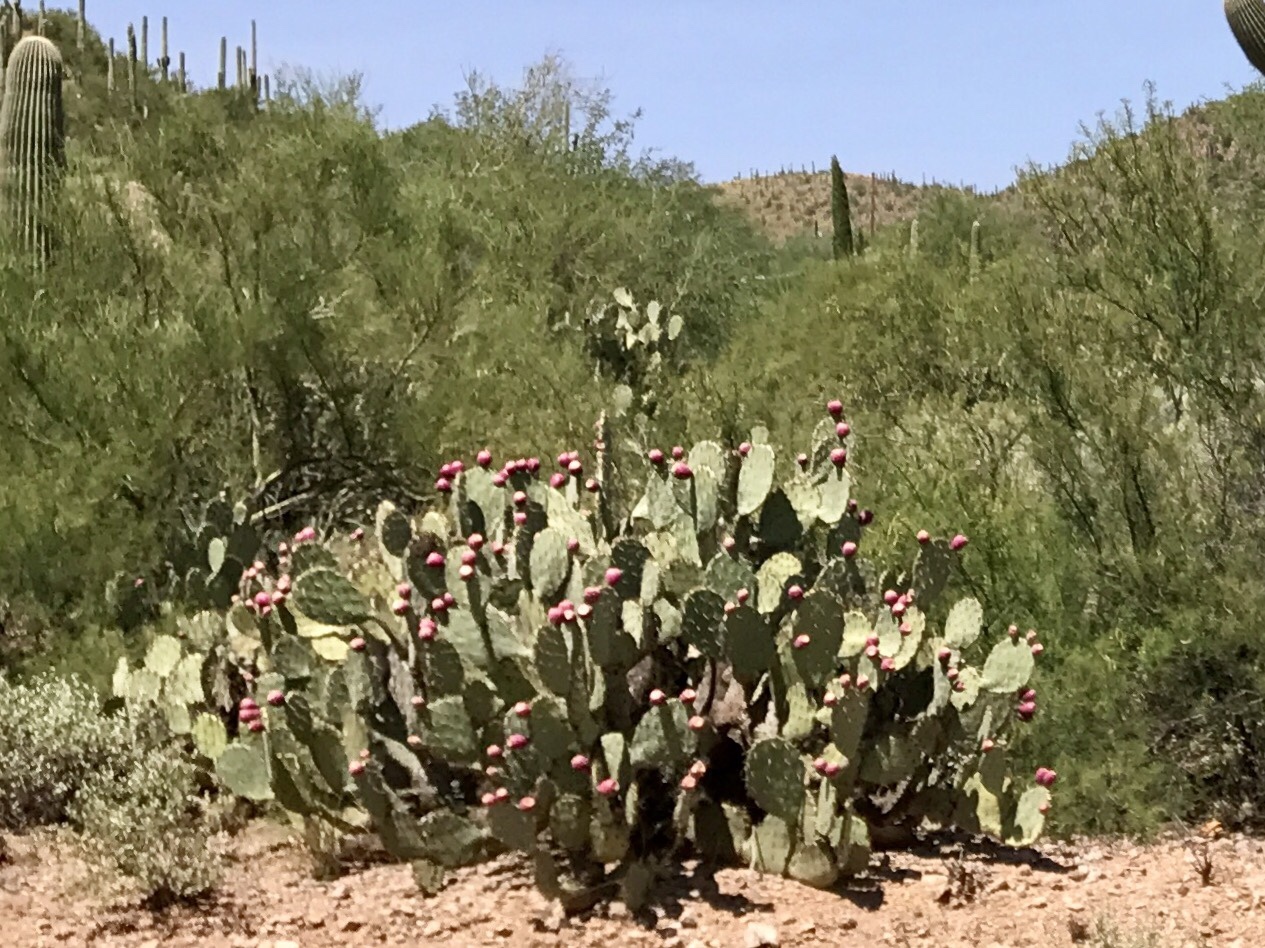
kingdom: Plantae
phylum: Tracheophyta
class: Magnoliopsida
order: Caryophyllales
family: Cactaceae
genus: Opuntia
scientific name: Opuntia engelmannii
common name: Cactus-apple
